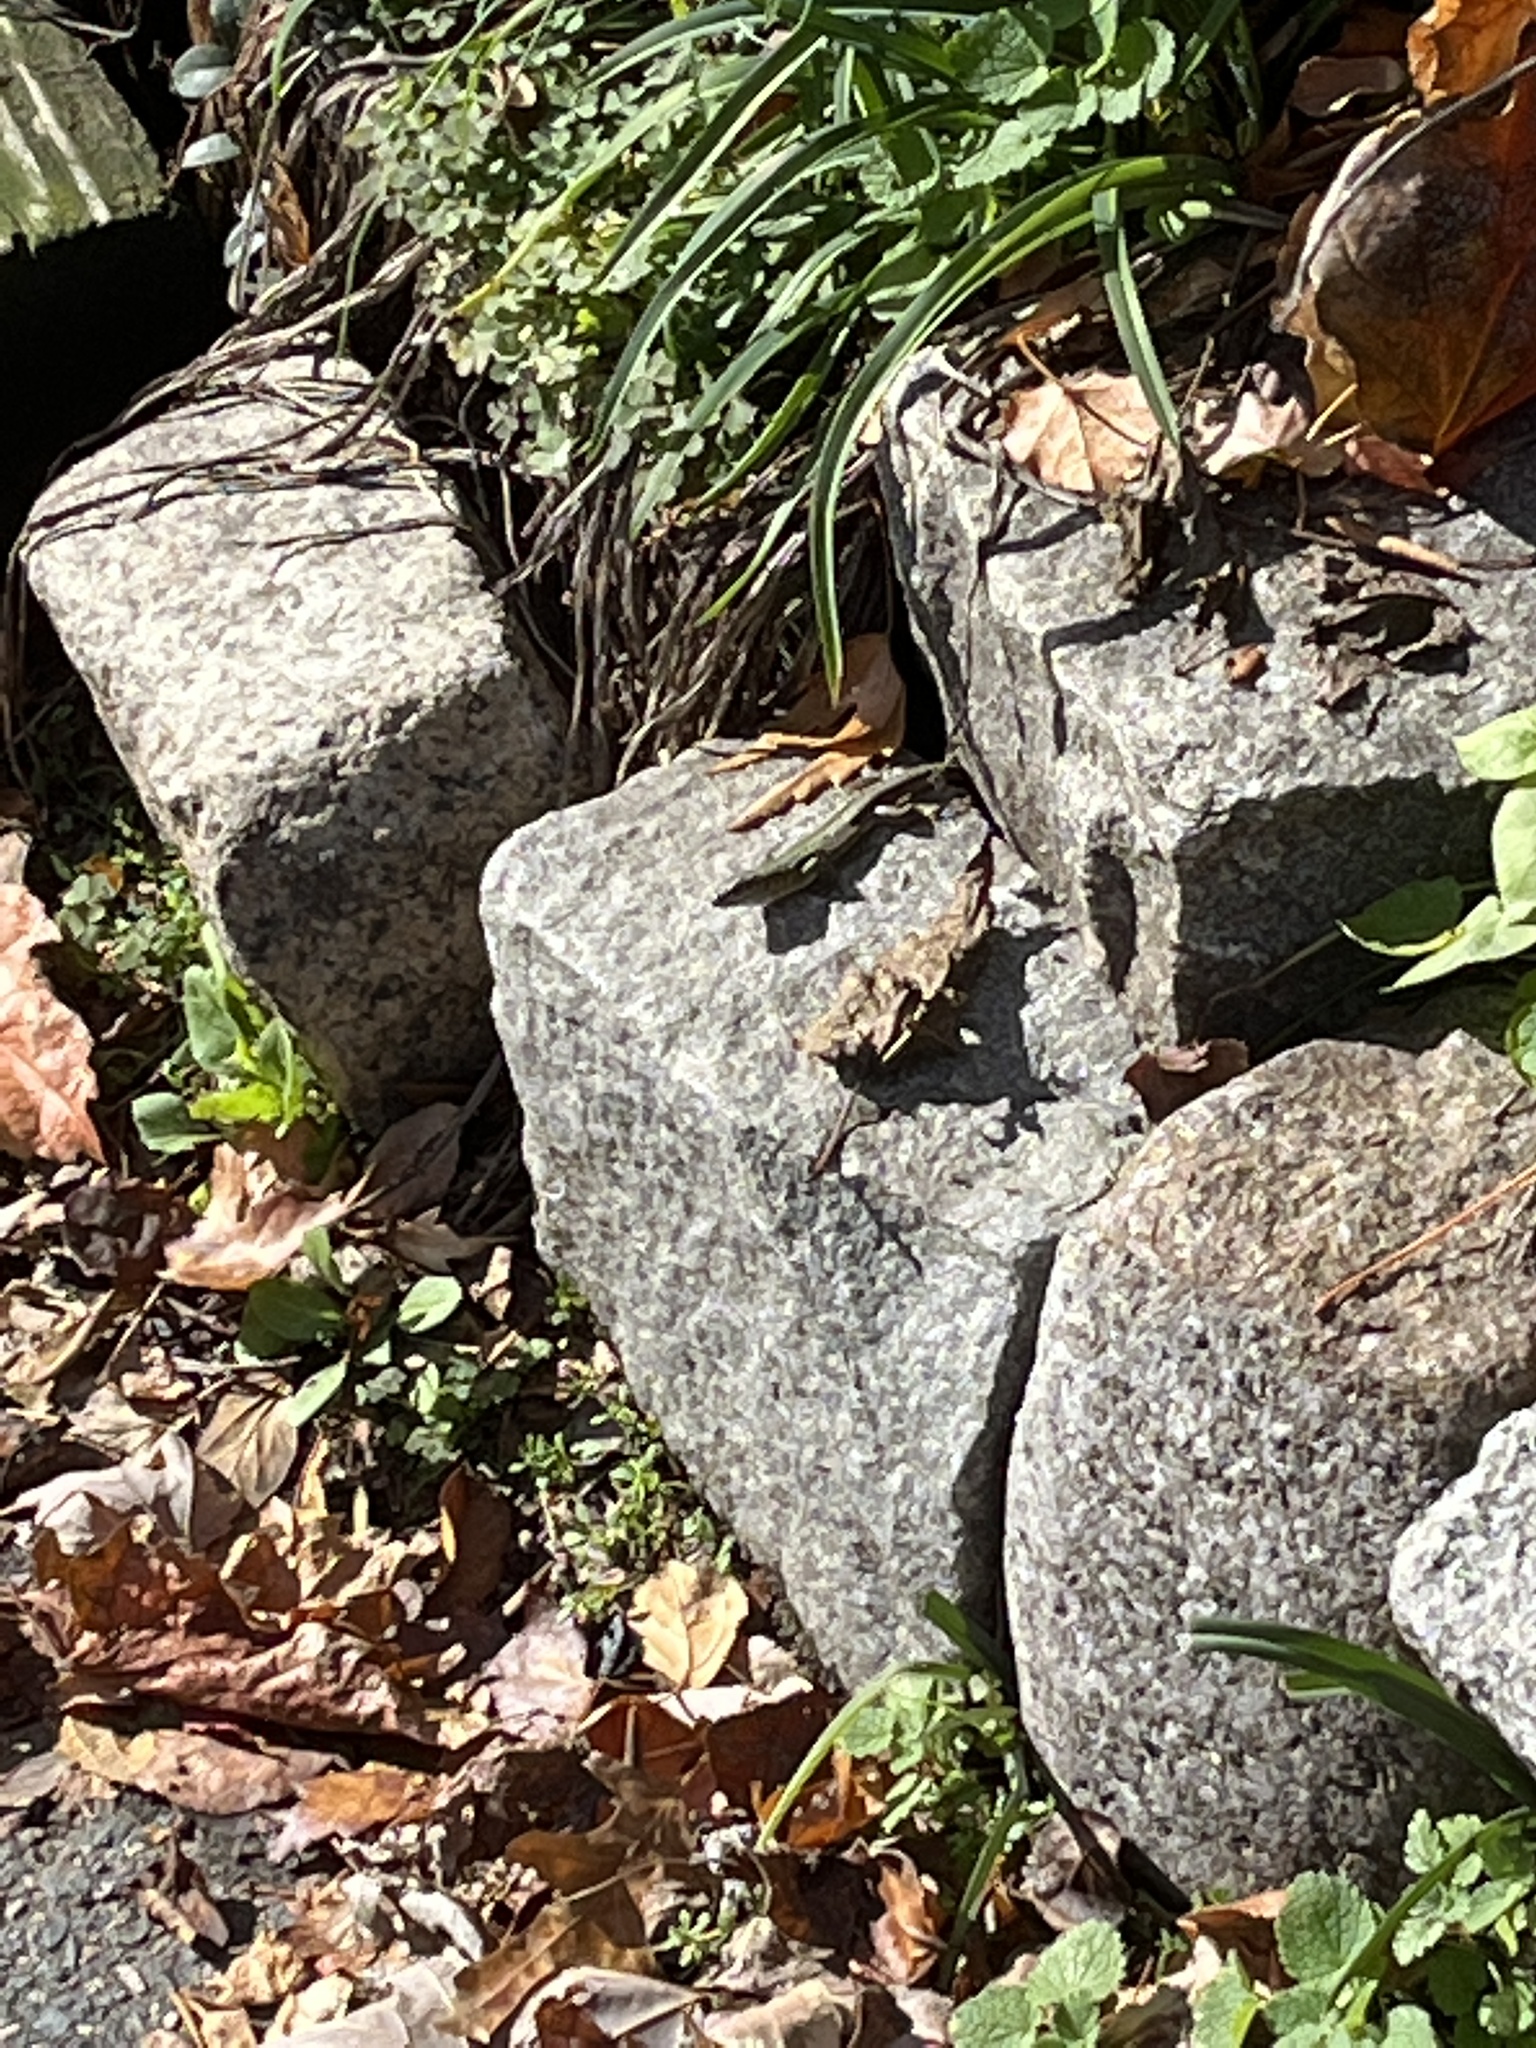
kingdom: Animalia
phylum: Chordata
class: Squamata
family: Lacertidae
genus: Podarcis
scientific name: Podarcis siculus
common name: Italian wall lizard
